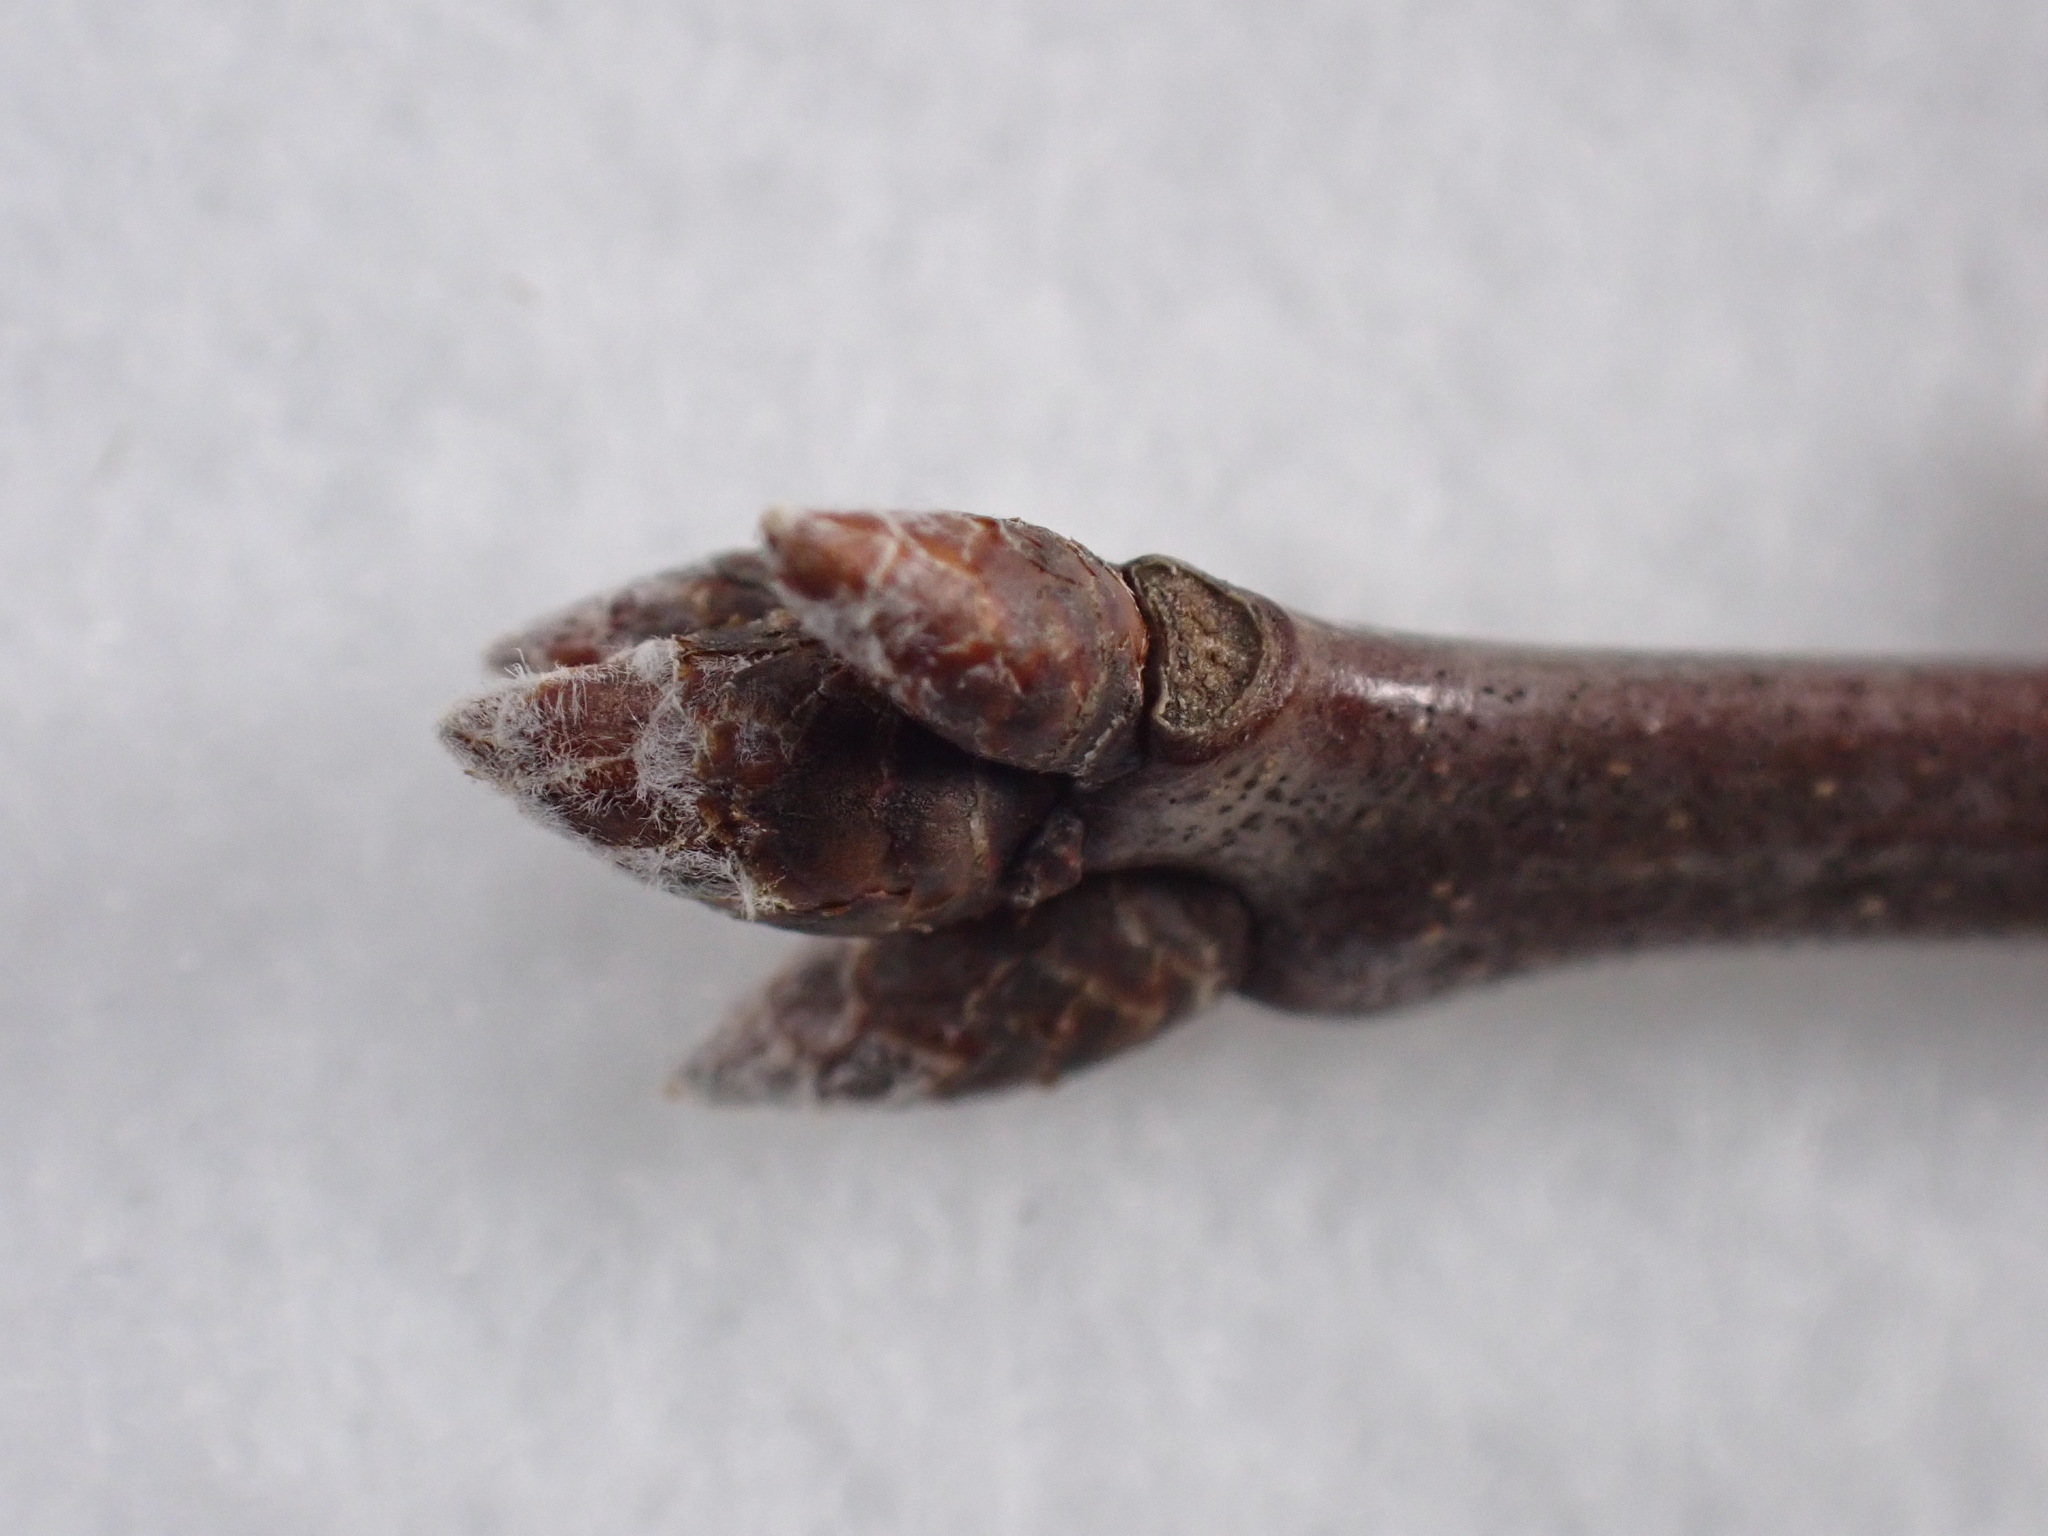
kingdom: Plantae
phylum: Tracheophyta
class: Magnoliopsida
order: Fagales
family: Fagaceae
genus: Quercus
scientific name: Quercus rubra
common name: Red oak
